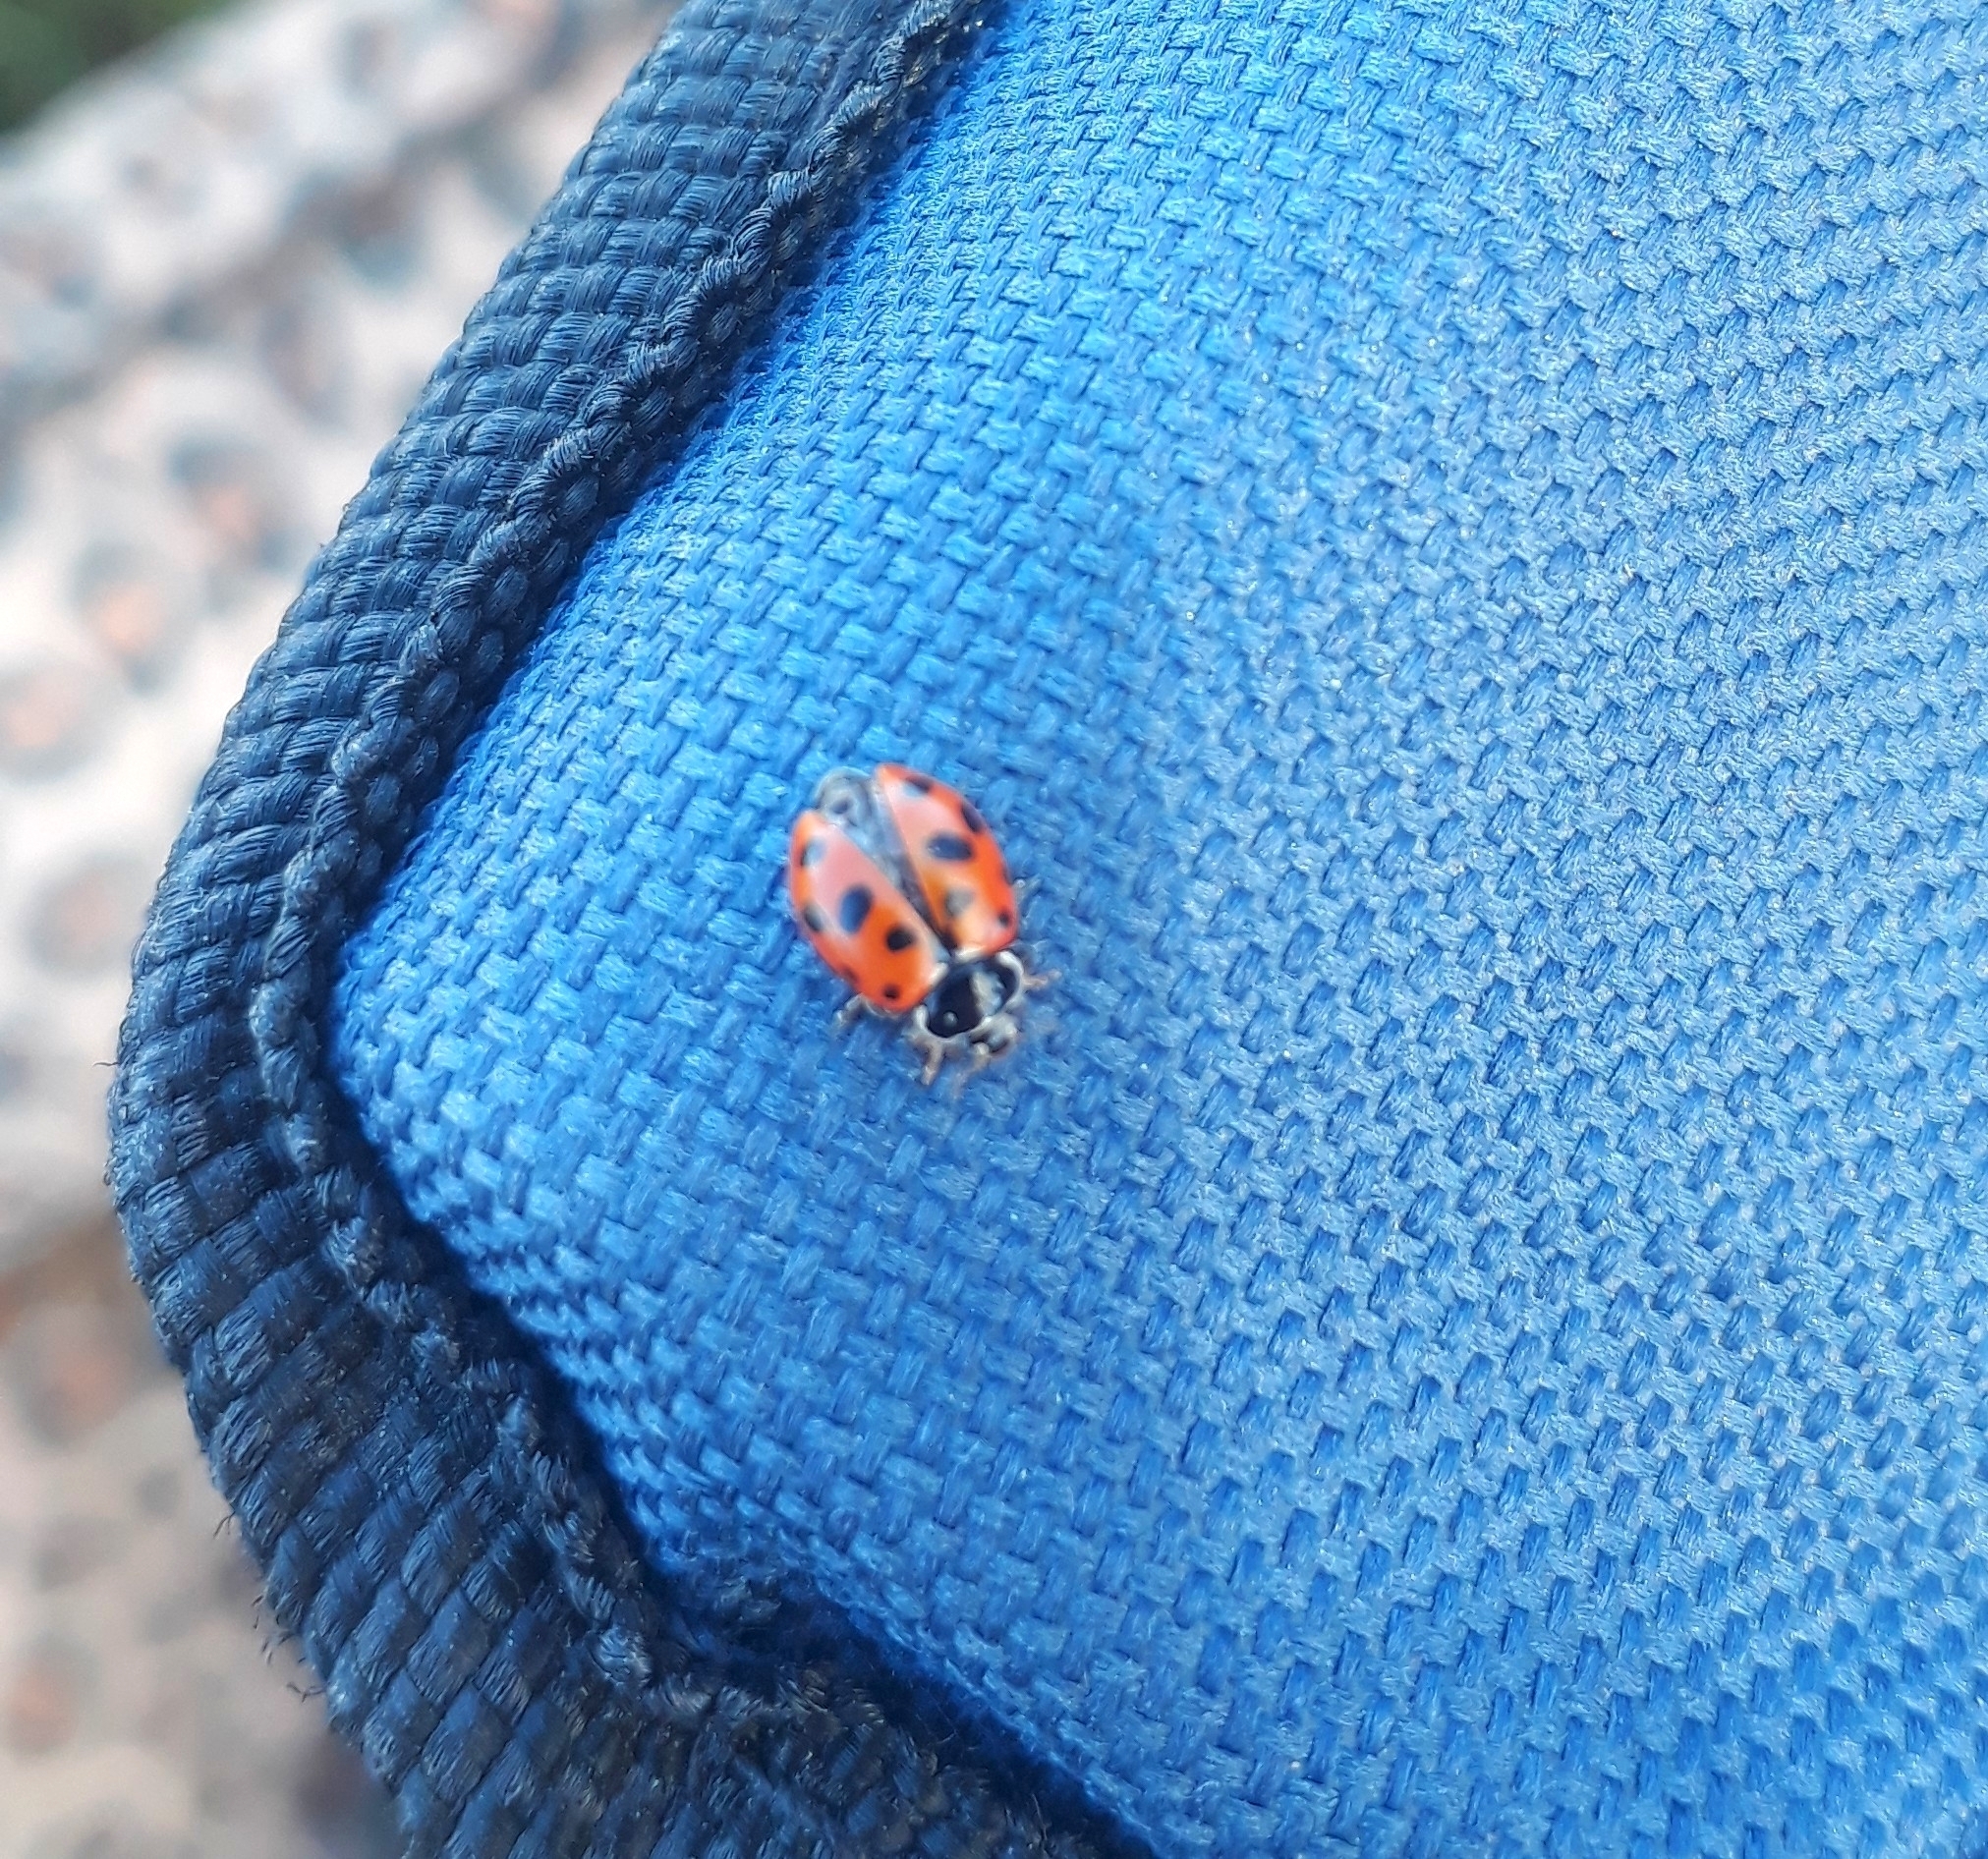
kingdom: Animalia
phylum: Arthropoda
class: Insecta
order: Coleoptera
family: Coccinellidae
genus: Hippodamia
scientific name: Hippodamia variegata
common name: Ladybird beetle
